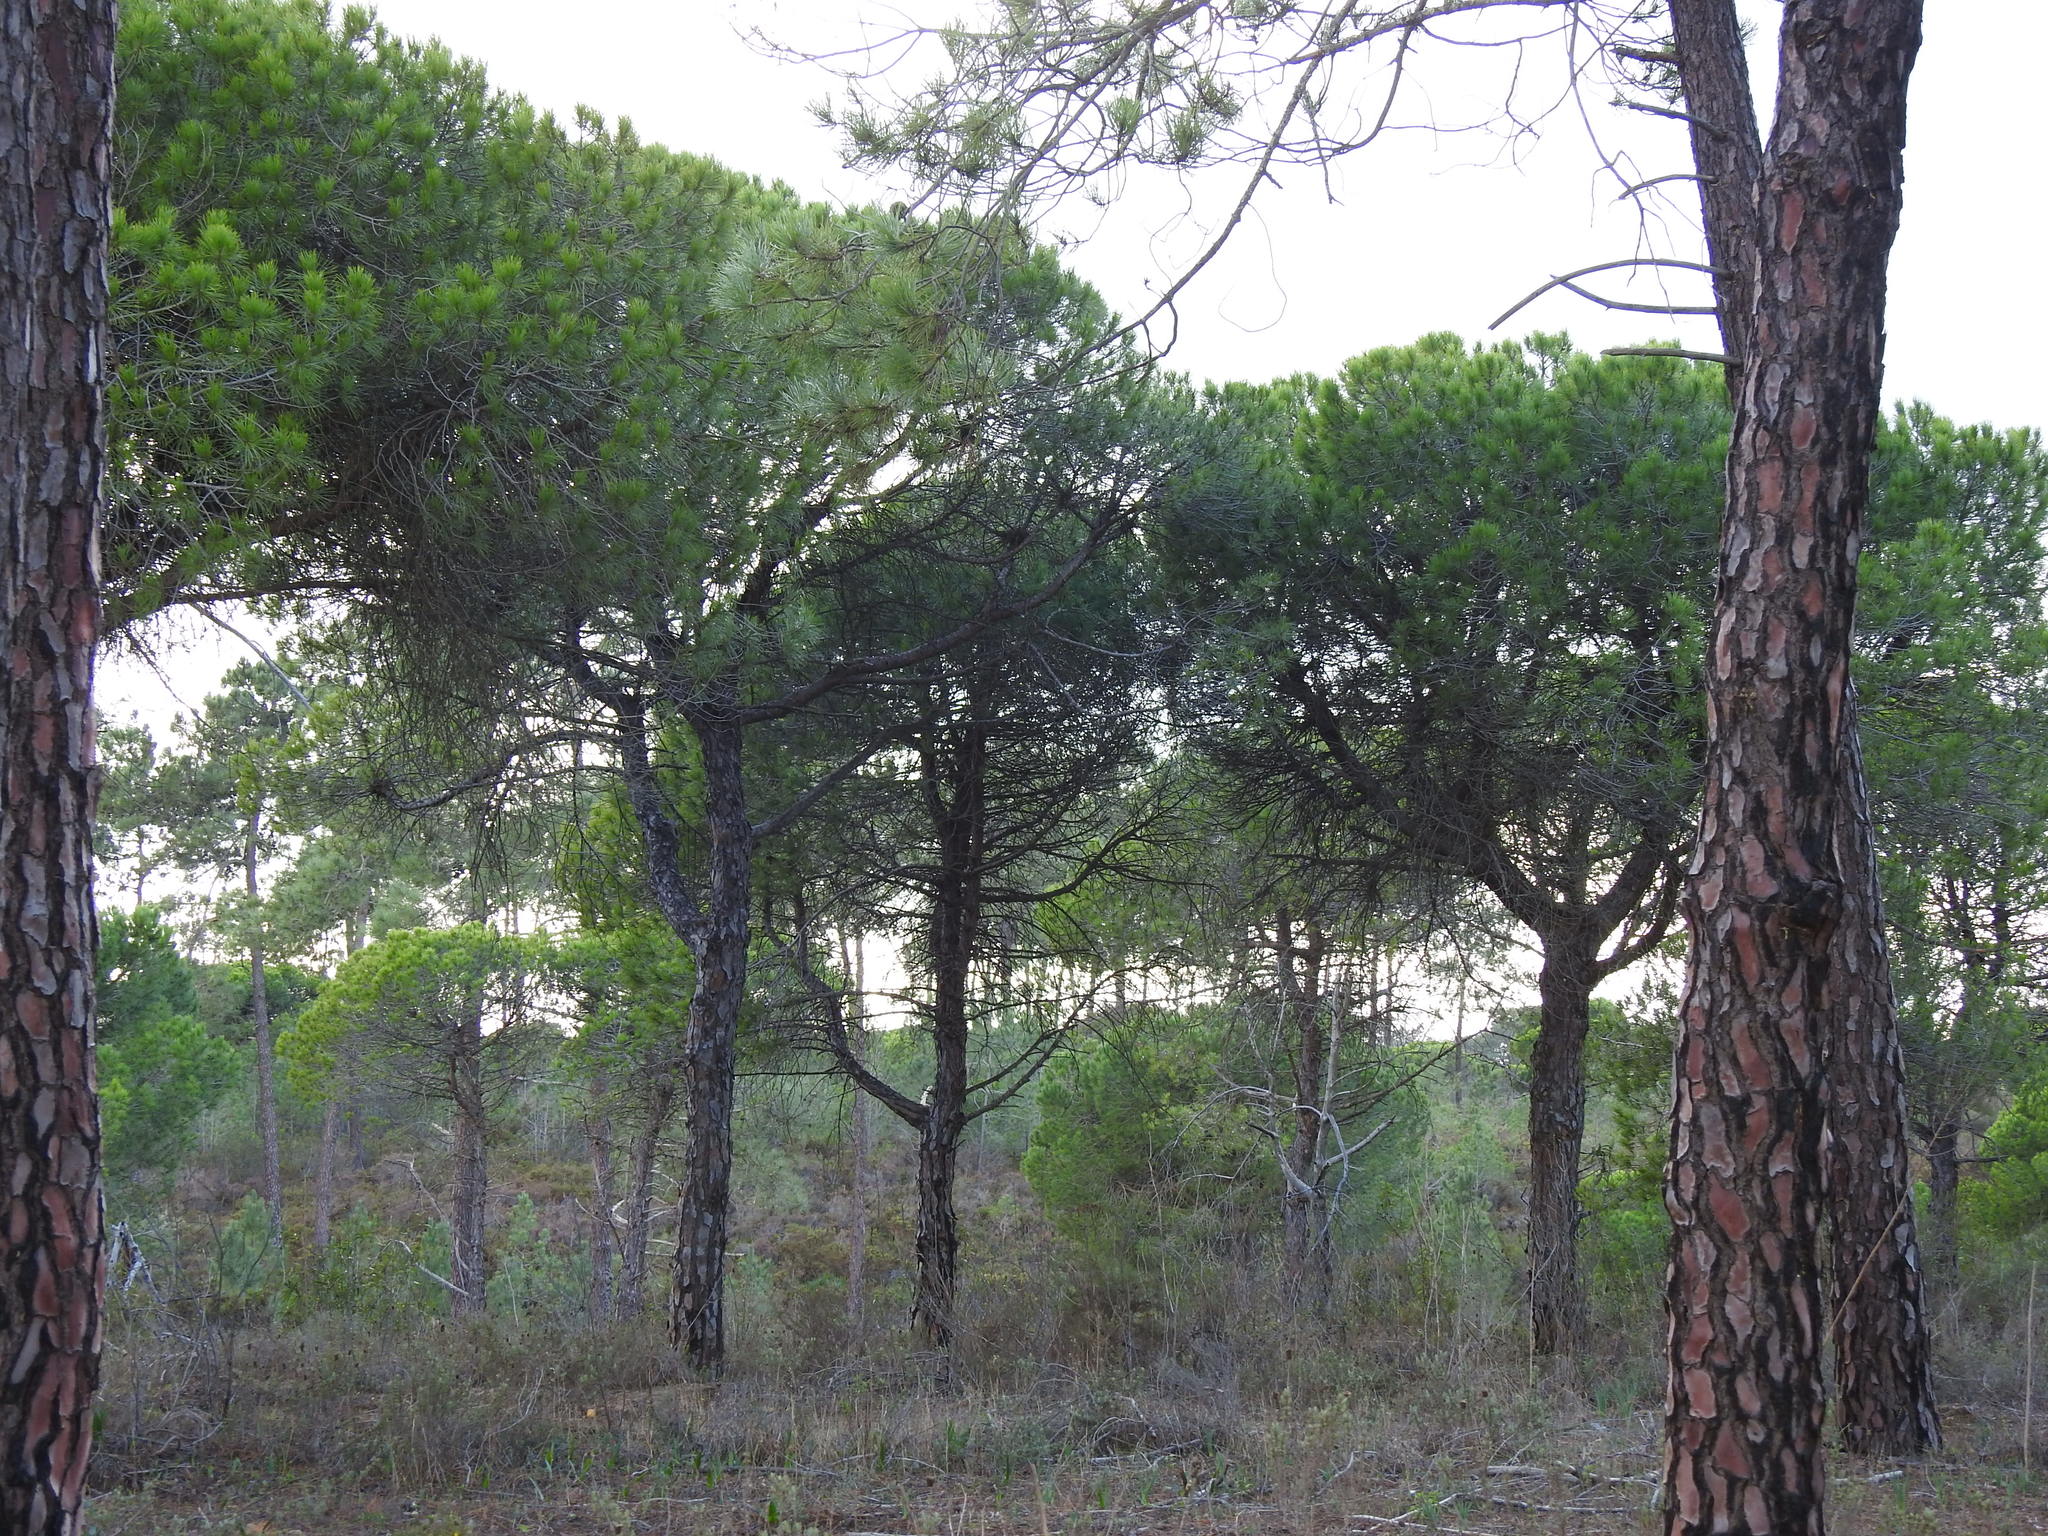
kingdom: Plantae
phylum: Tracheophyta
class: Pinopsida
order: Pinales
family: Pinaceae
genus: Pinus
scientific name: Pinus pinea
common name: Italian stone pine
